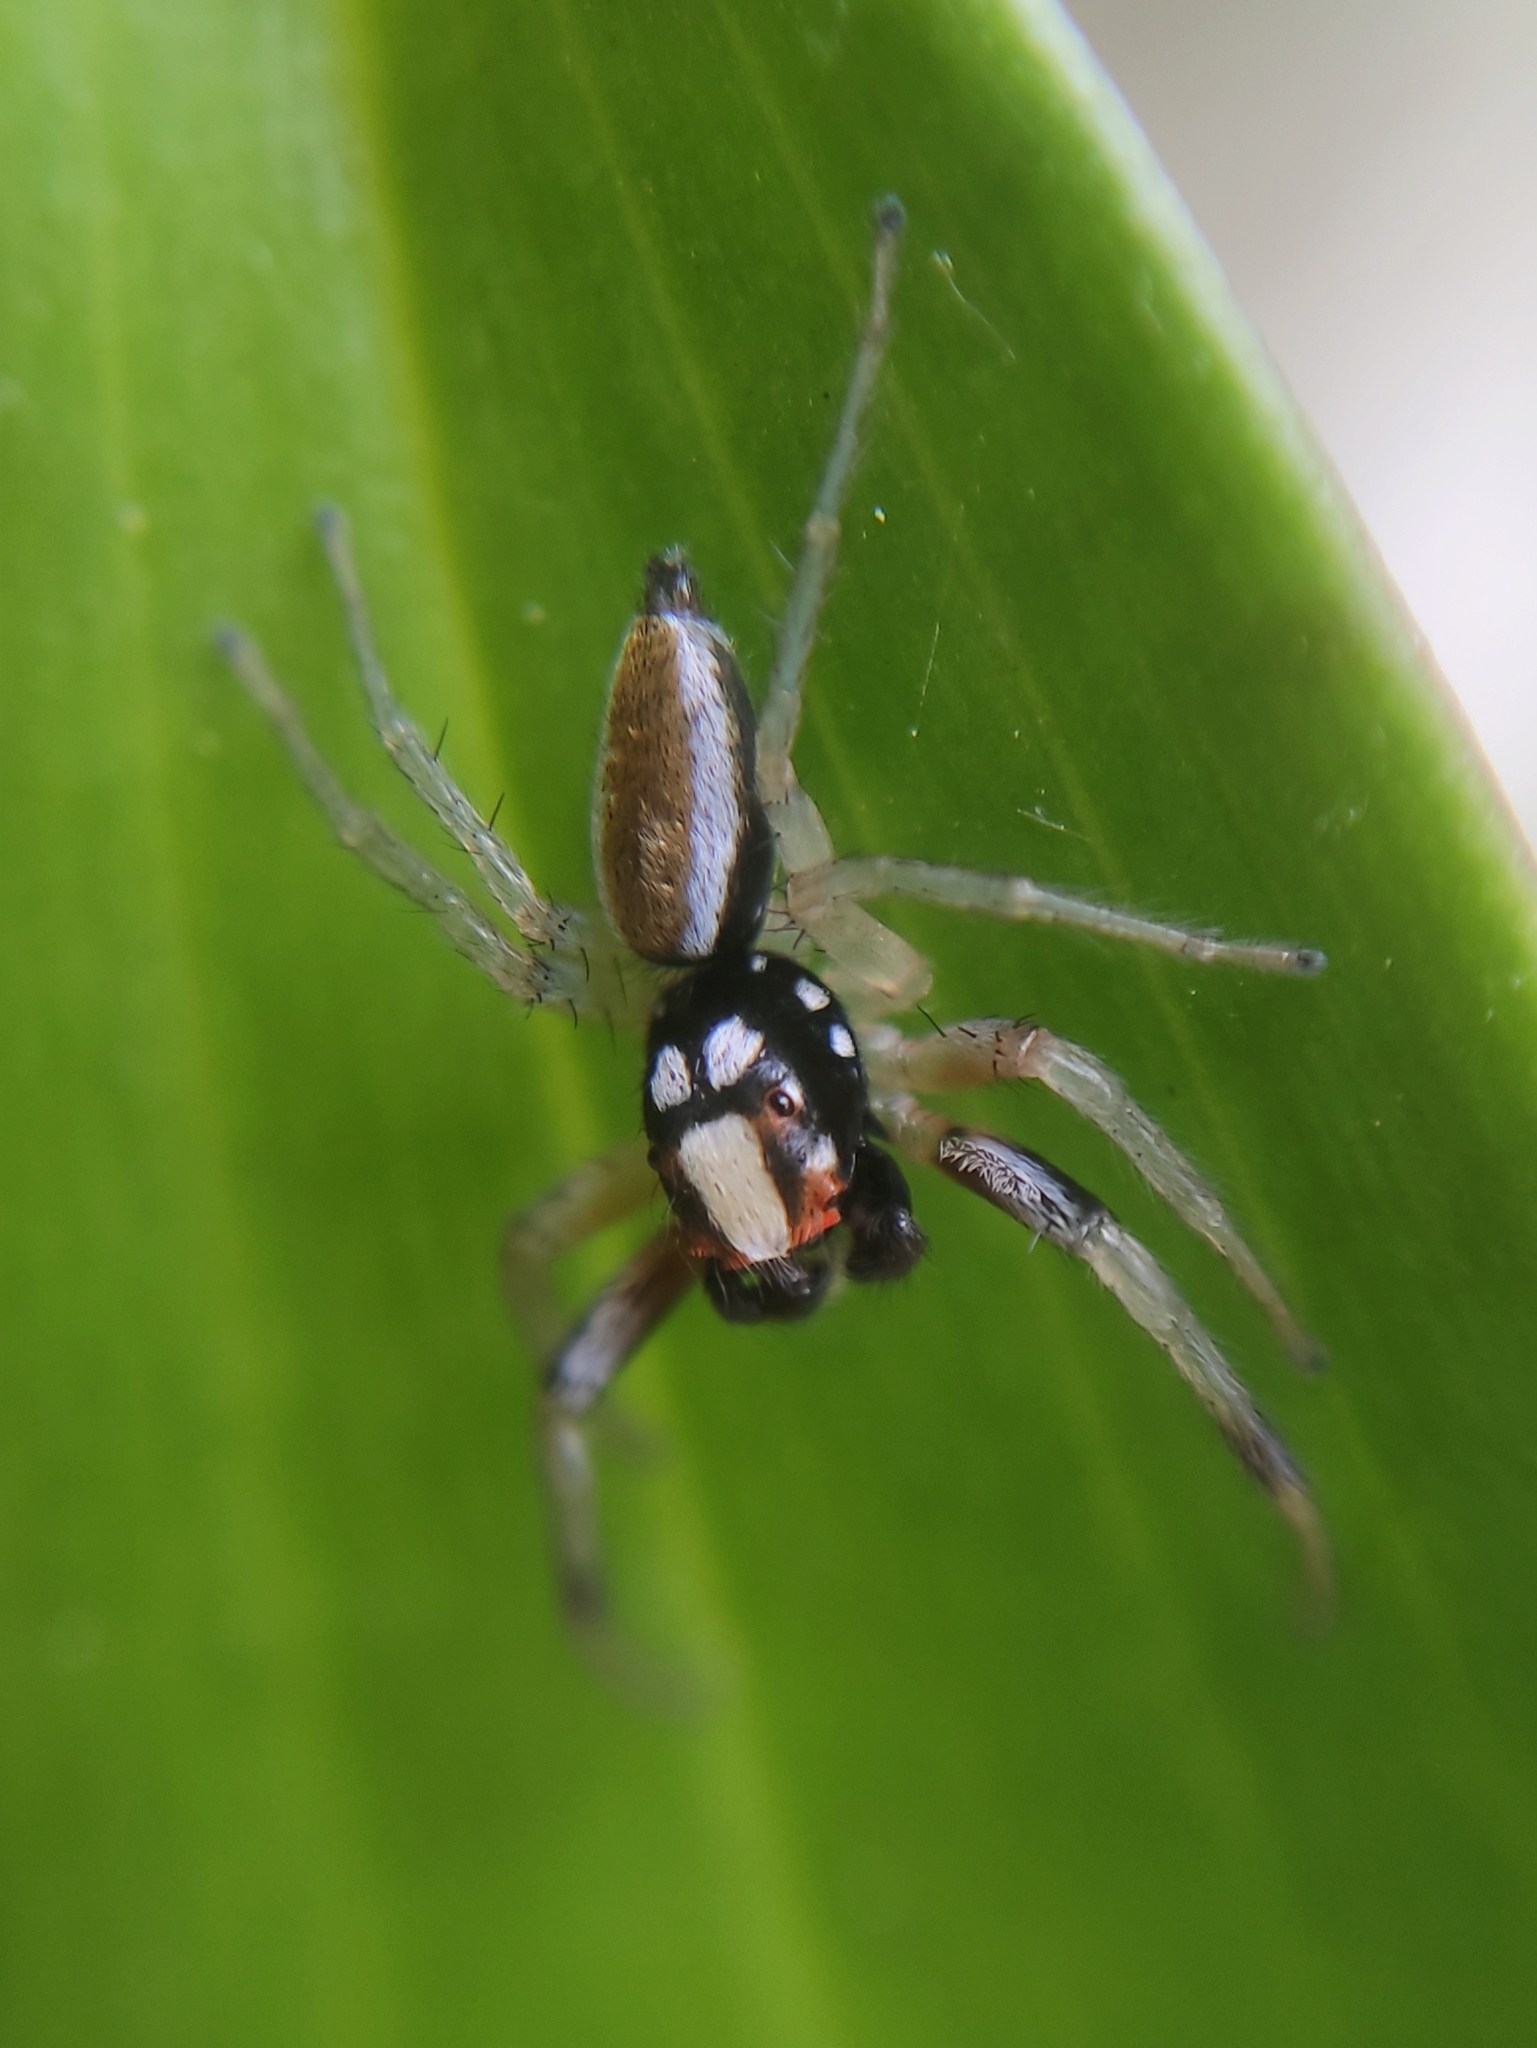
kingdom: Animalia
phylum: Arthropoda
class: Arachnida
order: Araneae
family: Salticidae
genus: Chira
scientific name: Chira spinosa
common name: Jumping spiders
